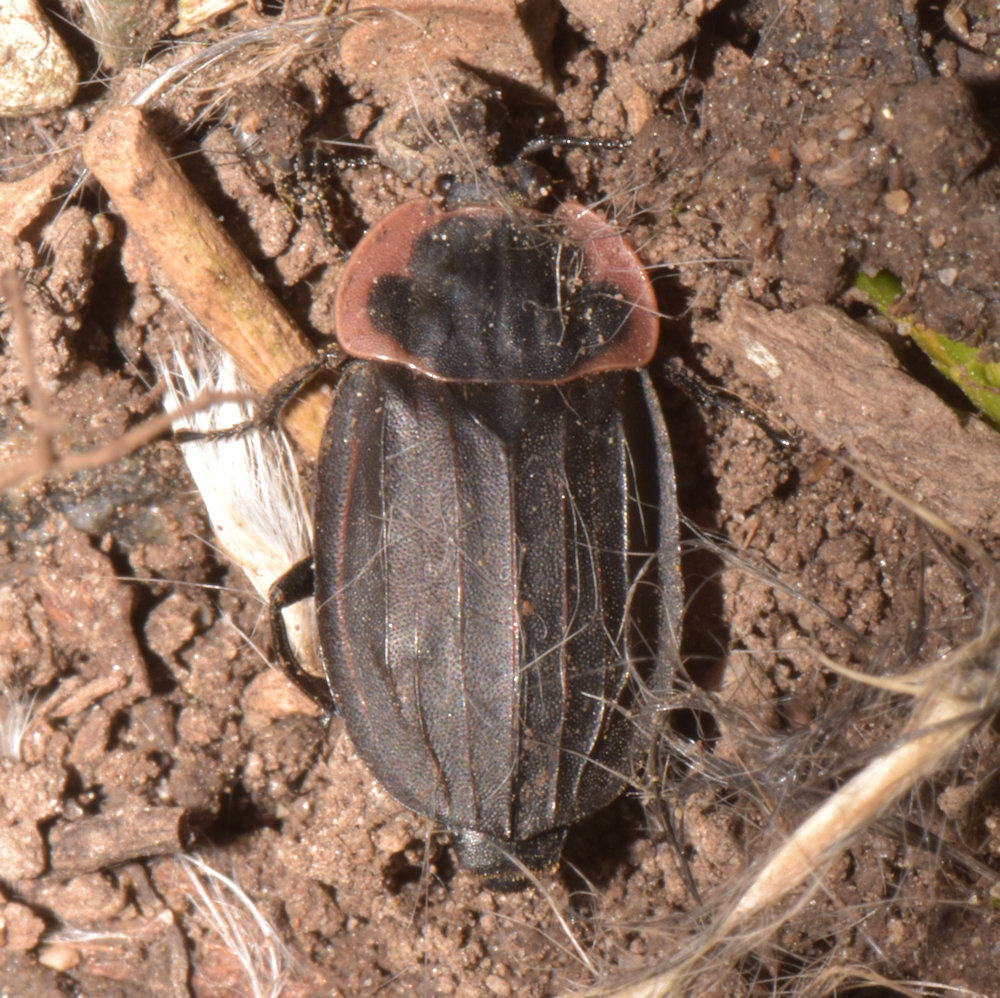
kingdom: Animalia
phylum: Arthropoda
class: Insecta
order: Coleoptera
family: Staphylinidae
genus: Oiceoptoma
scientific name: Oiceoptoma noveboracense
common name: Margined carrion beetle
